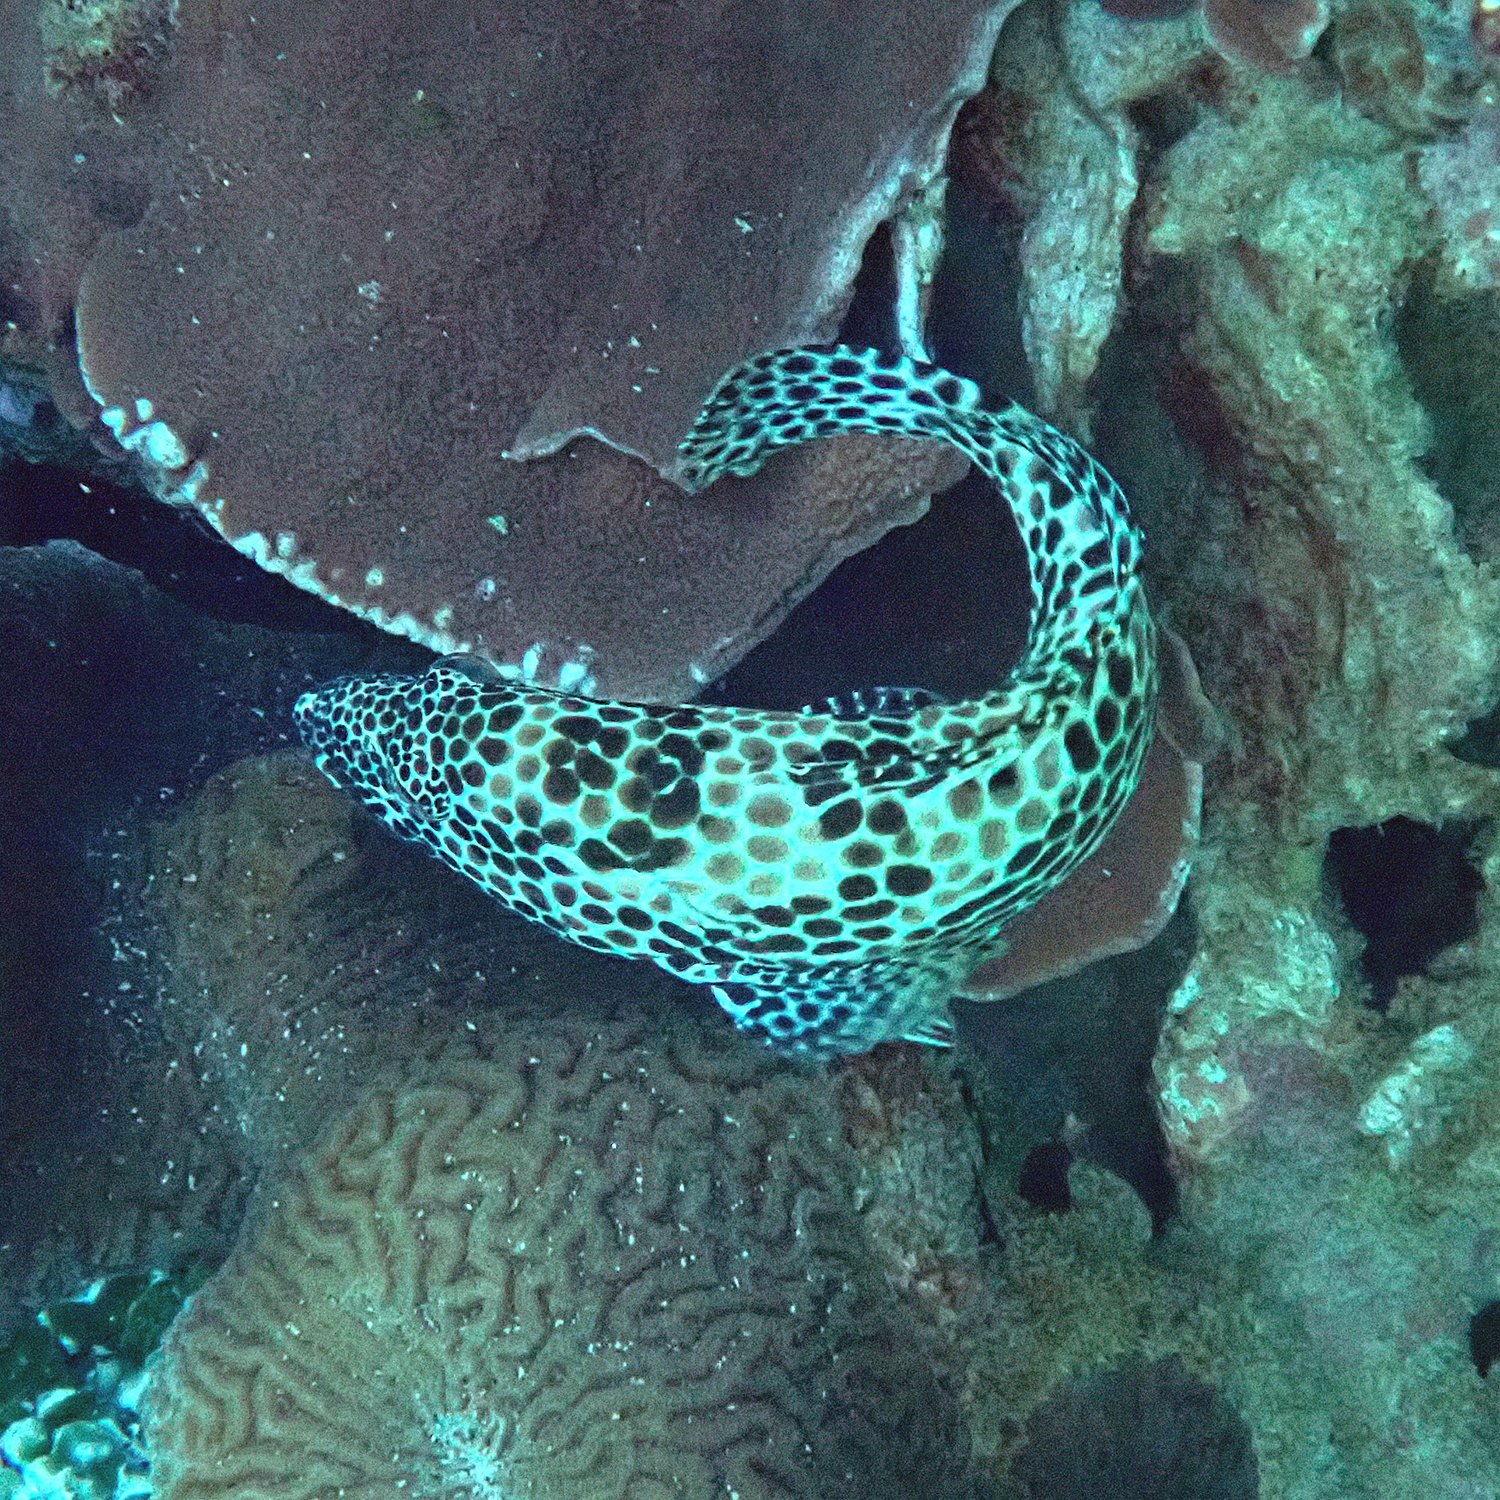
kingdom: Animalia
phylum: Chordata
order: Perciformes
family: Serranidae
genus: Epinephelus
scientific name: Epinephelus merra
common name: Honeycomb grouper
